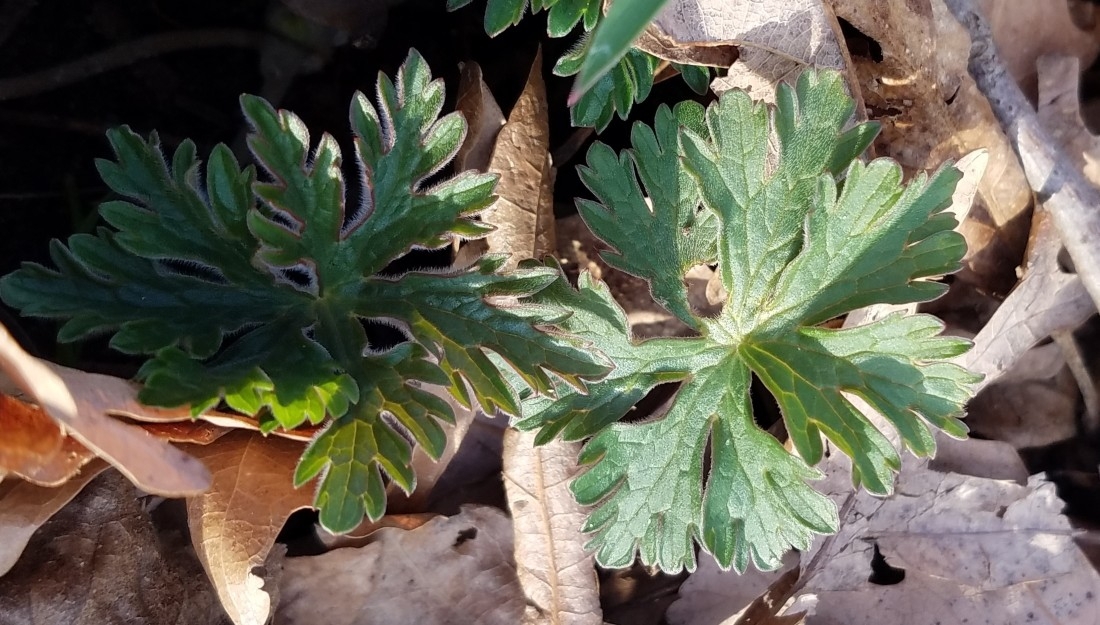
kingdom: Plantae
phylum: Tracheophyta
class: Magnoliopsida
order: Geraniales
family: Geraniaceae
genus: Geranium
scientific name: Geranium maculatum
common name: Spotted geranium
